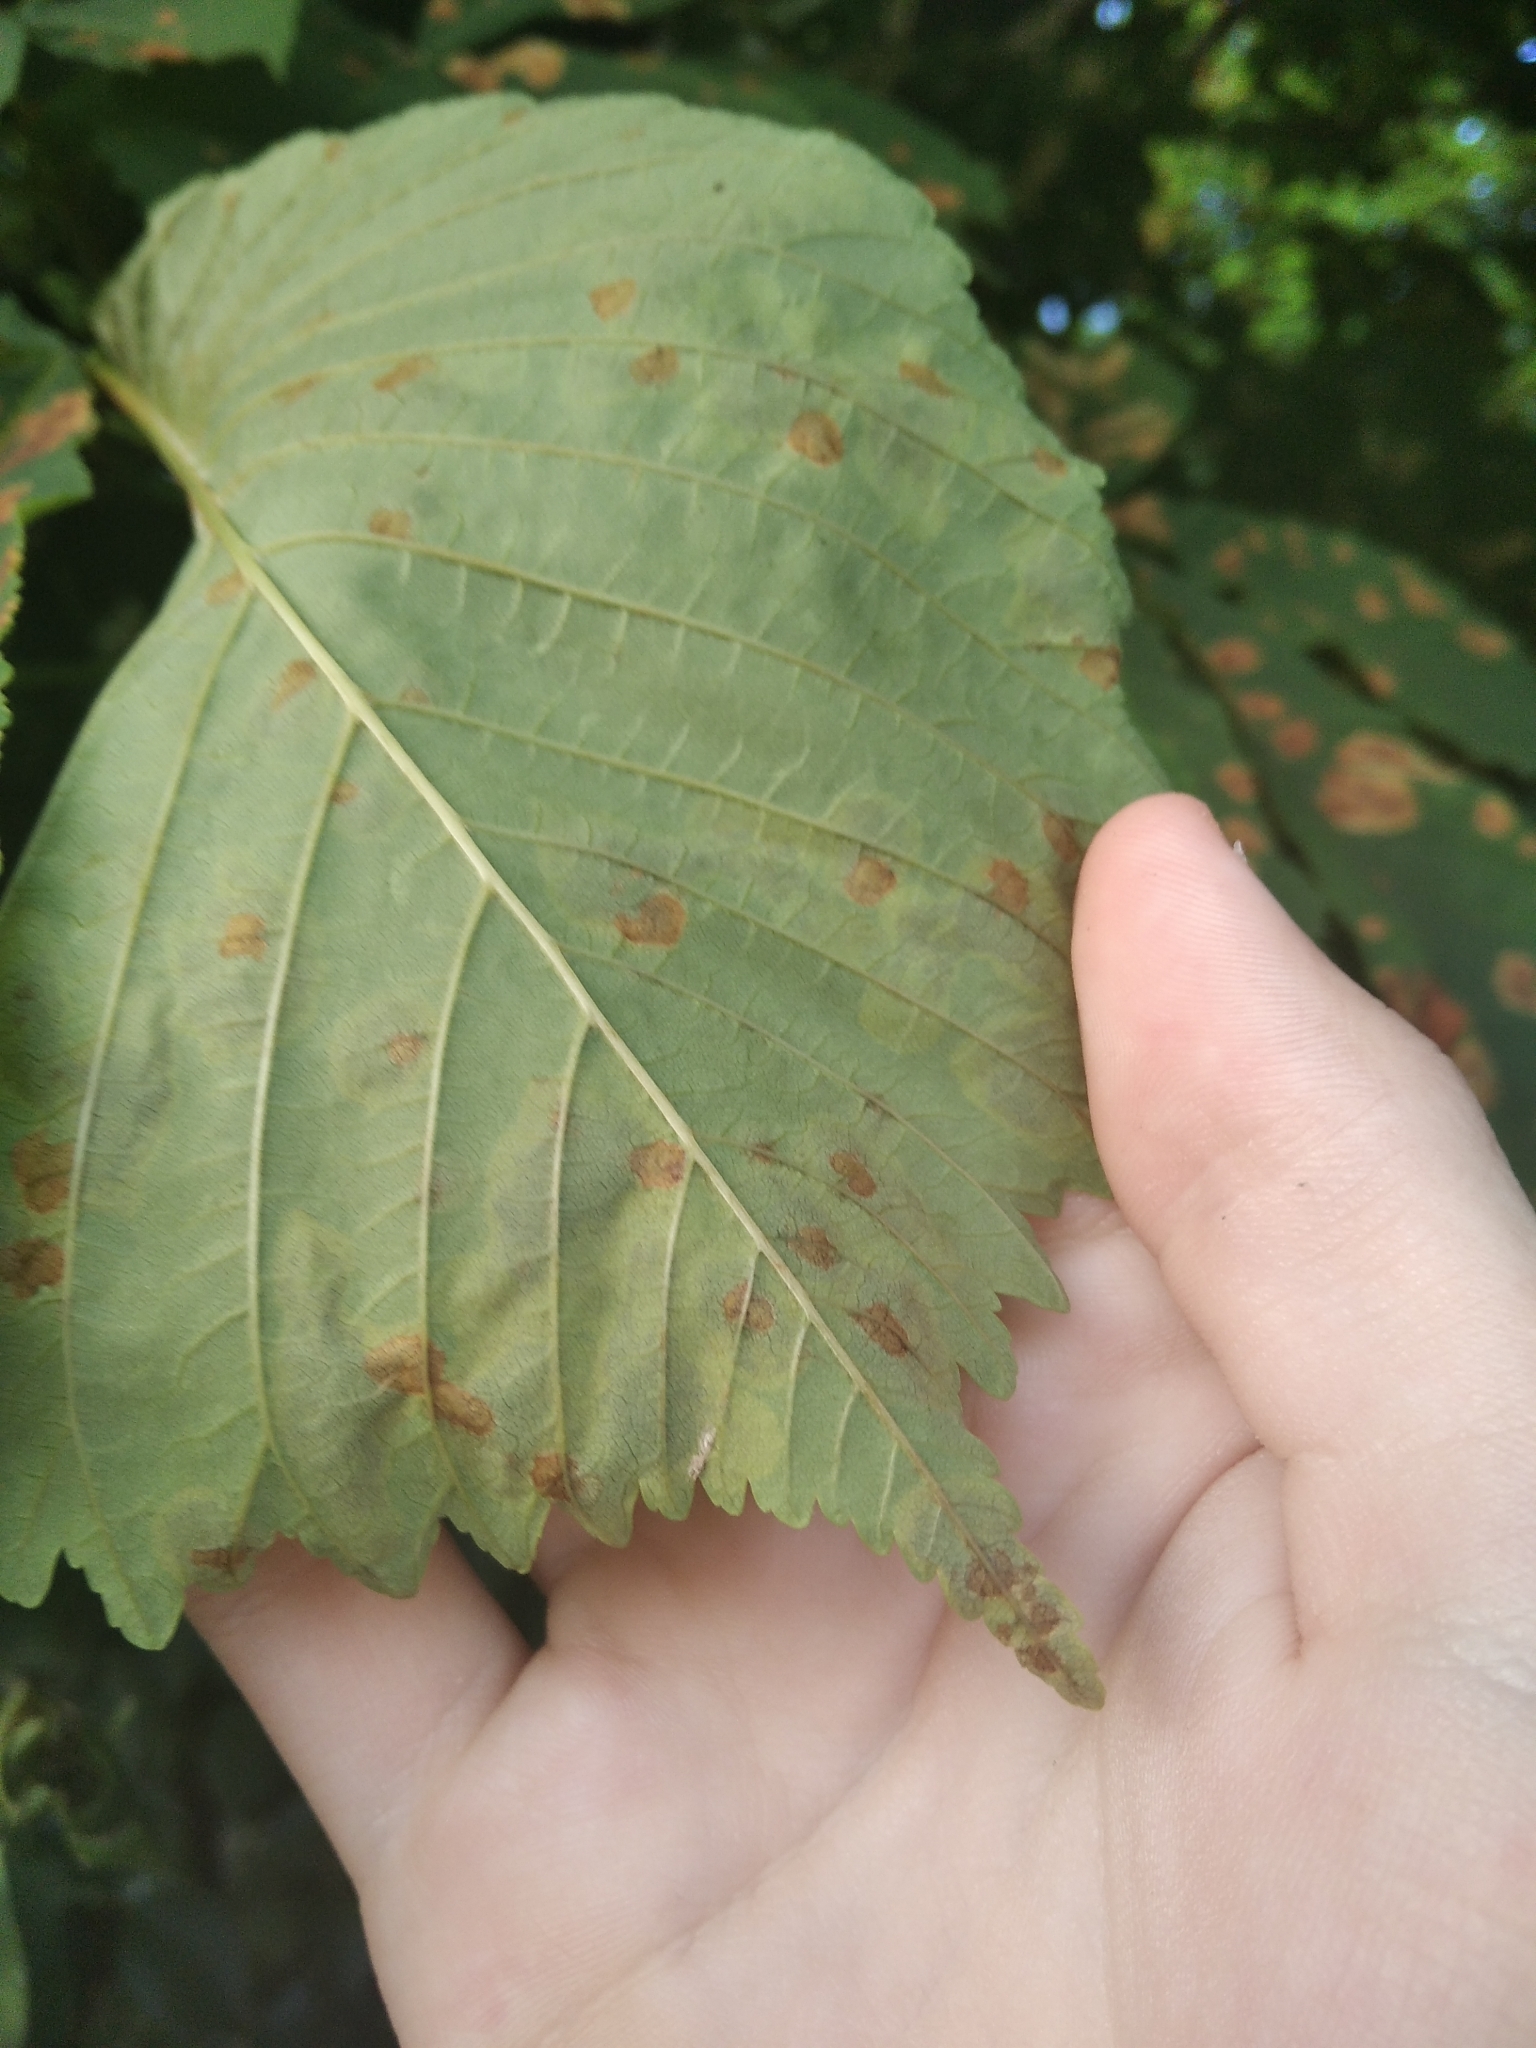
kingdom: Animalia
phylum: Arthropoda
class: Insecta
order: Lepidoptera
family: Gracillariidae
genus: Cameraria
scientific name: Cameraria ohridella
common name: Horse-chestnut leaf-miner
